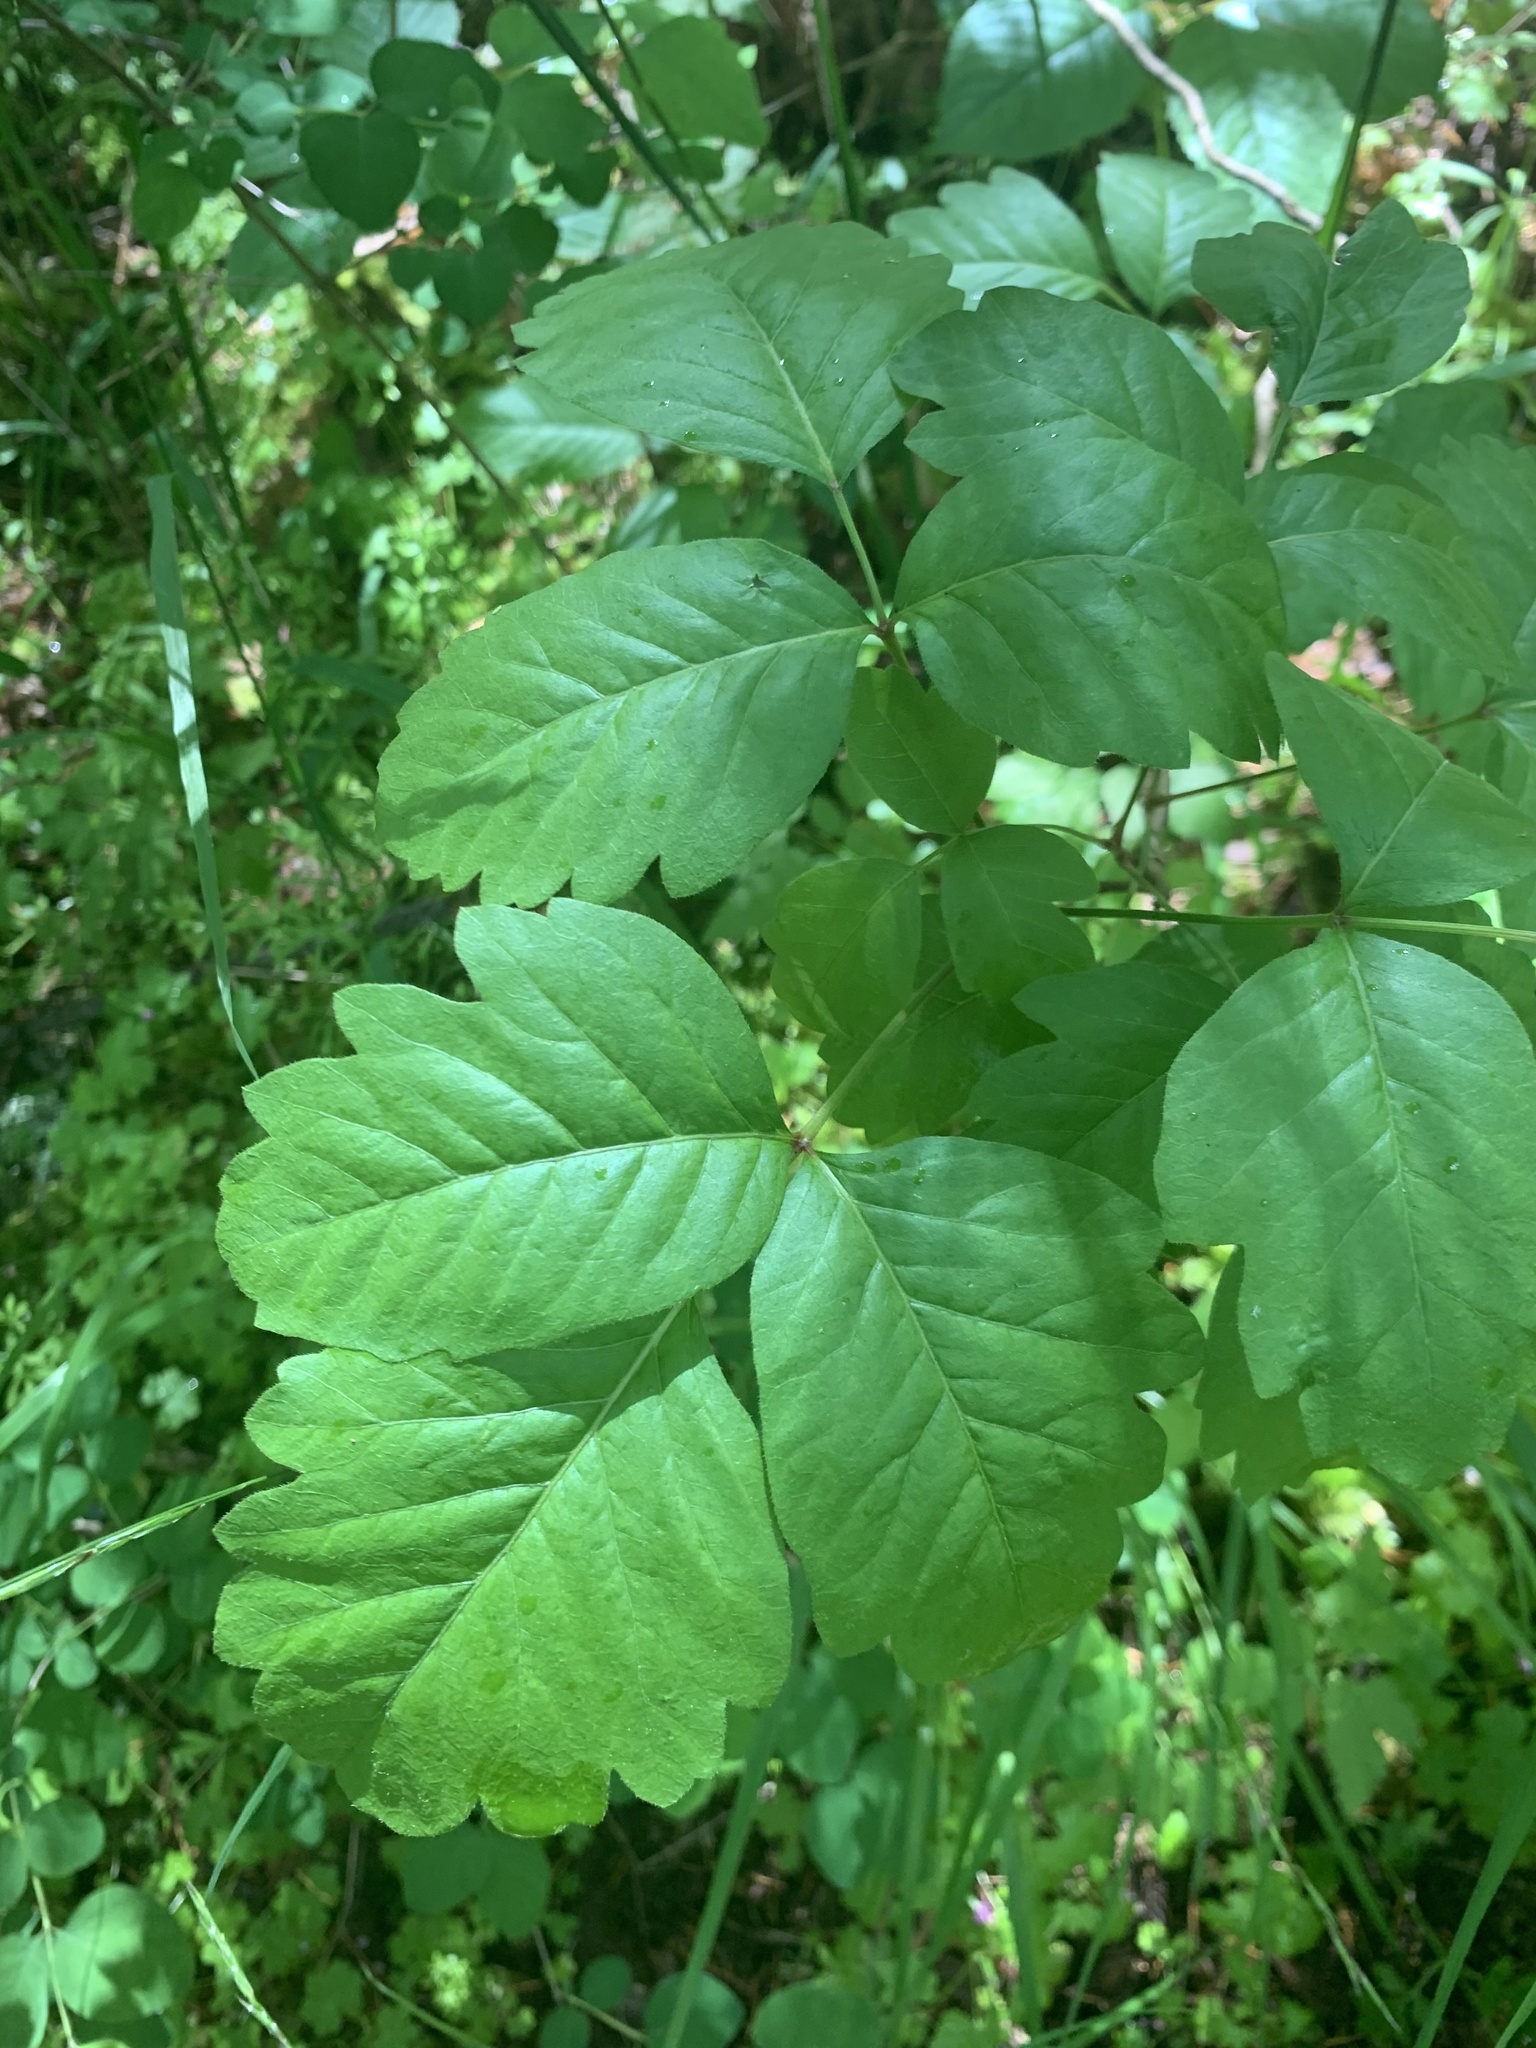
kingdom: Plantae
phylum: Tracheophyta
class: Magnoliopsida
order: Sapindales
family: Anacardiaceae
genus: Toxicodendron
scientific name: Toxicodendron diversilobum
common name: Pacific poison-oak
